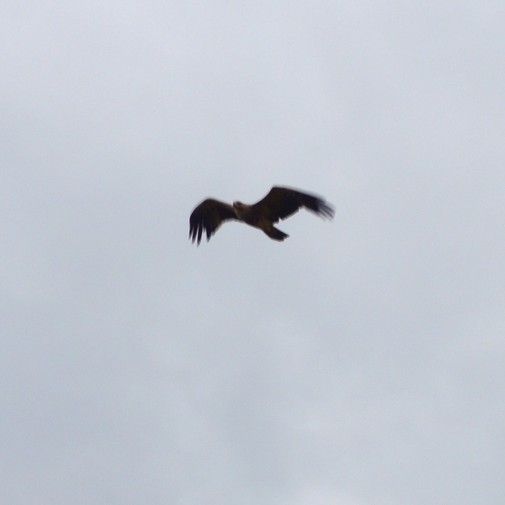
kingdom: Animalia
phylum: Chordata
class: Aves
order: Accipitriformes
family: Accipitridae
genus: Aquila
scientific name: Aquila heliaca
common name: Eastern imperial eagle
